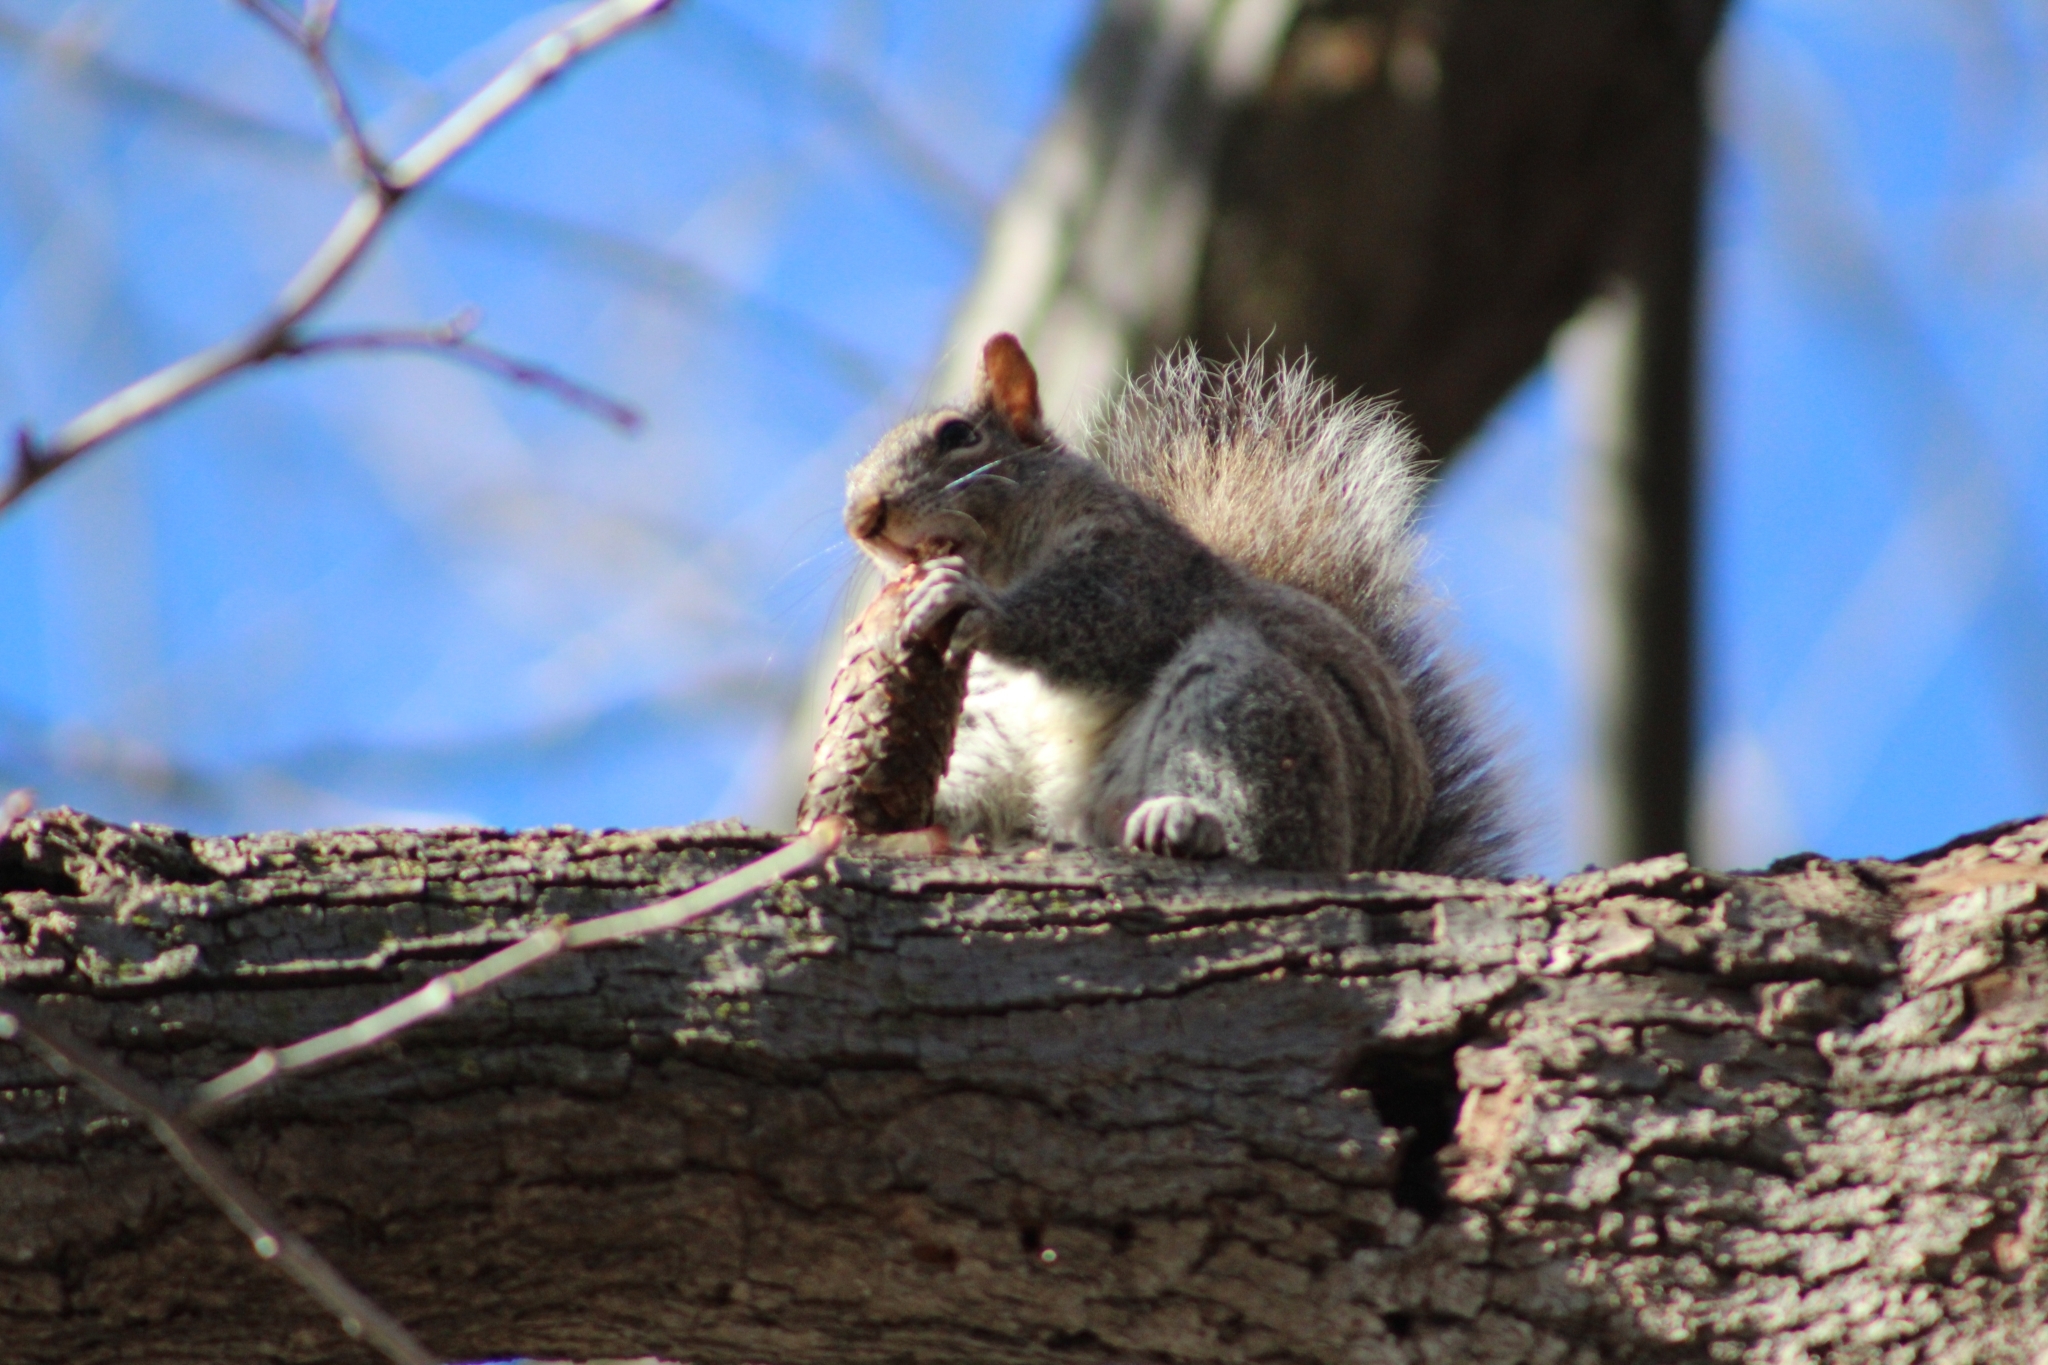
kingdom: Animalia
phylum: Chordata
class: Mammalia
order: Rodentia
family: Sciuridae
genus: Sciurus
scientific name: Sciurus carolinensis
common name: Eastern gray squirrel
